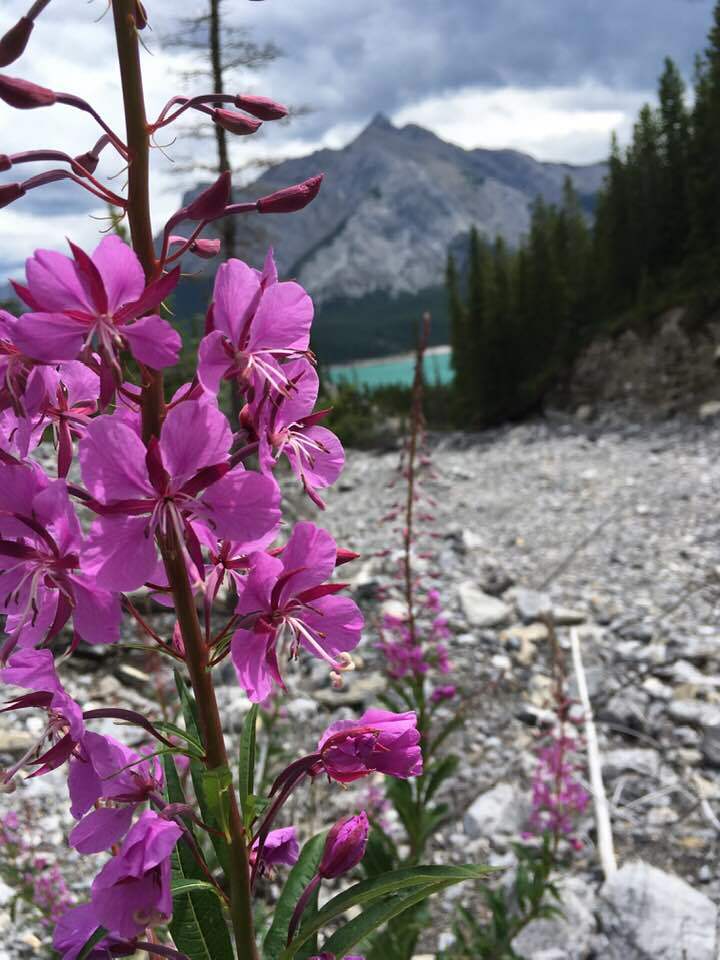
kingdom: Plantae
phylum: Tracheophyta
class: Magnoliopsida
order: Myrtales
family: Onagraceae
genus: Chamaenerion
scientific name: Chamaenerion angustifolium
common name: Fireweed
